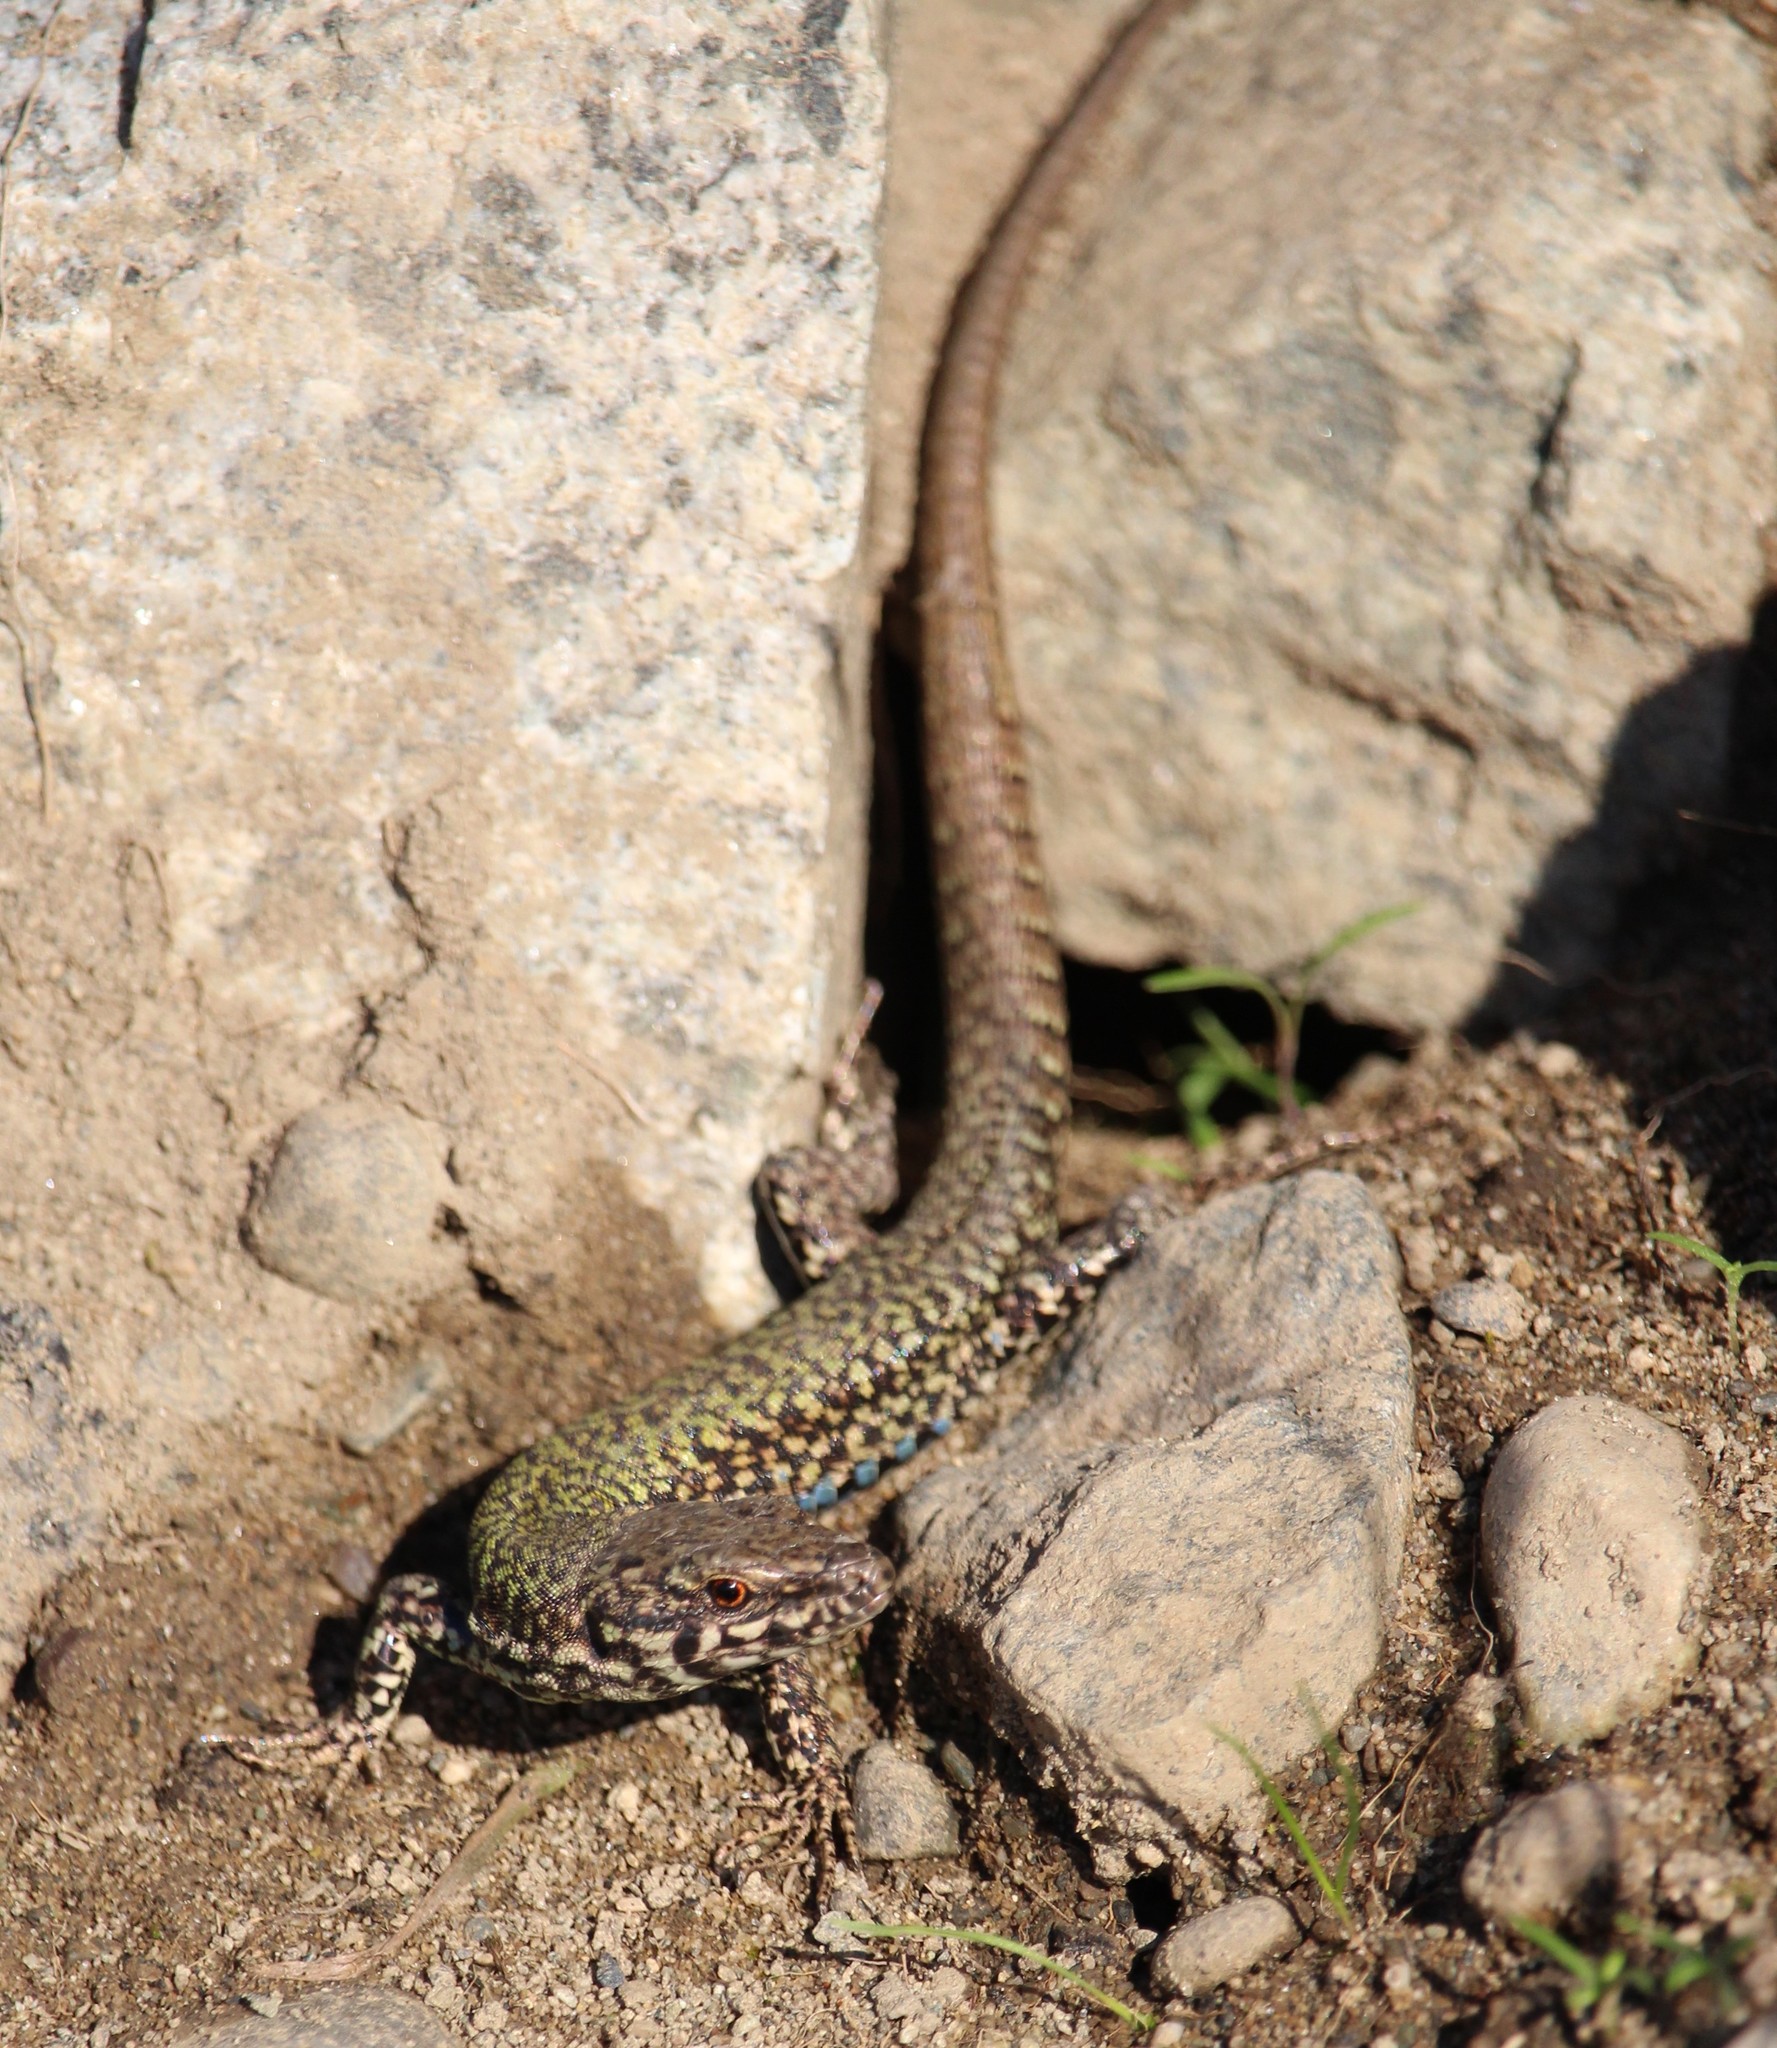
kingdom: Animalia
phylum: Chordata
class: Squamata
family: Lacertidae
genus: Podarcis
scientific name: Podarcis muralis
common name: Common wall lizard
